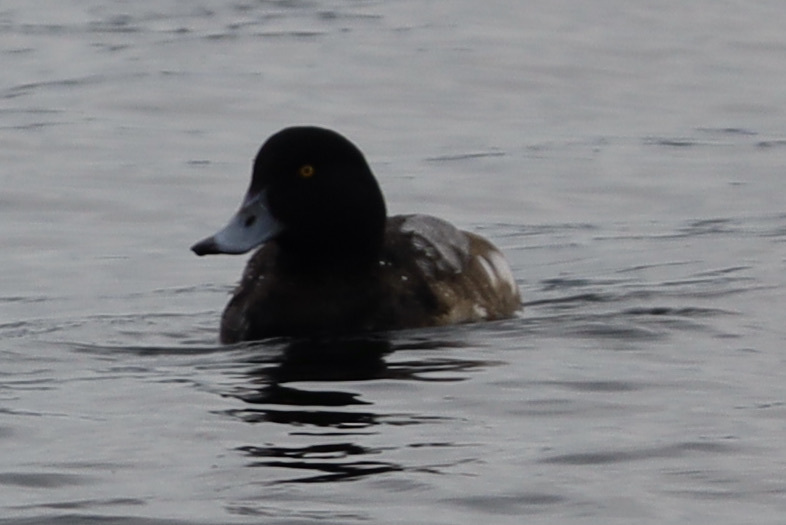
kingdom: Animalia
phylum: Chordata
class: Aves
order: Anseriformes
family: Anatidae
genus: Aythya
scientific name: Aythya marila
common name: Greater scaup
